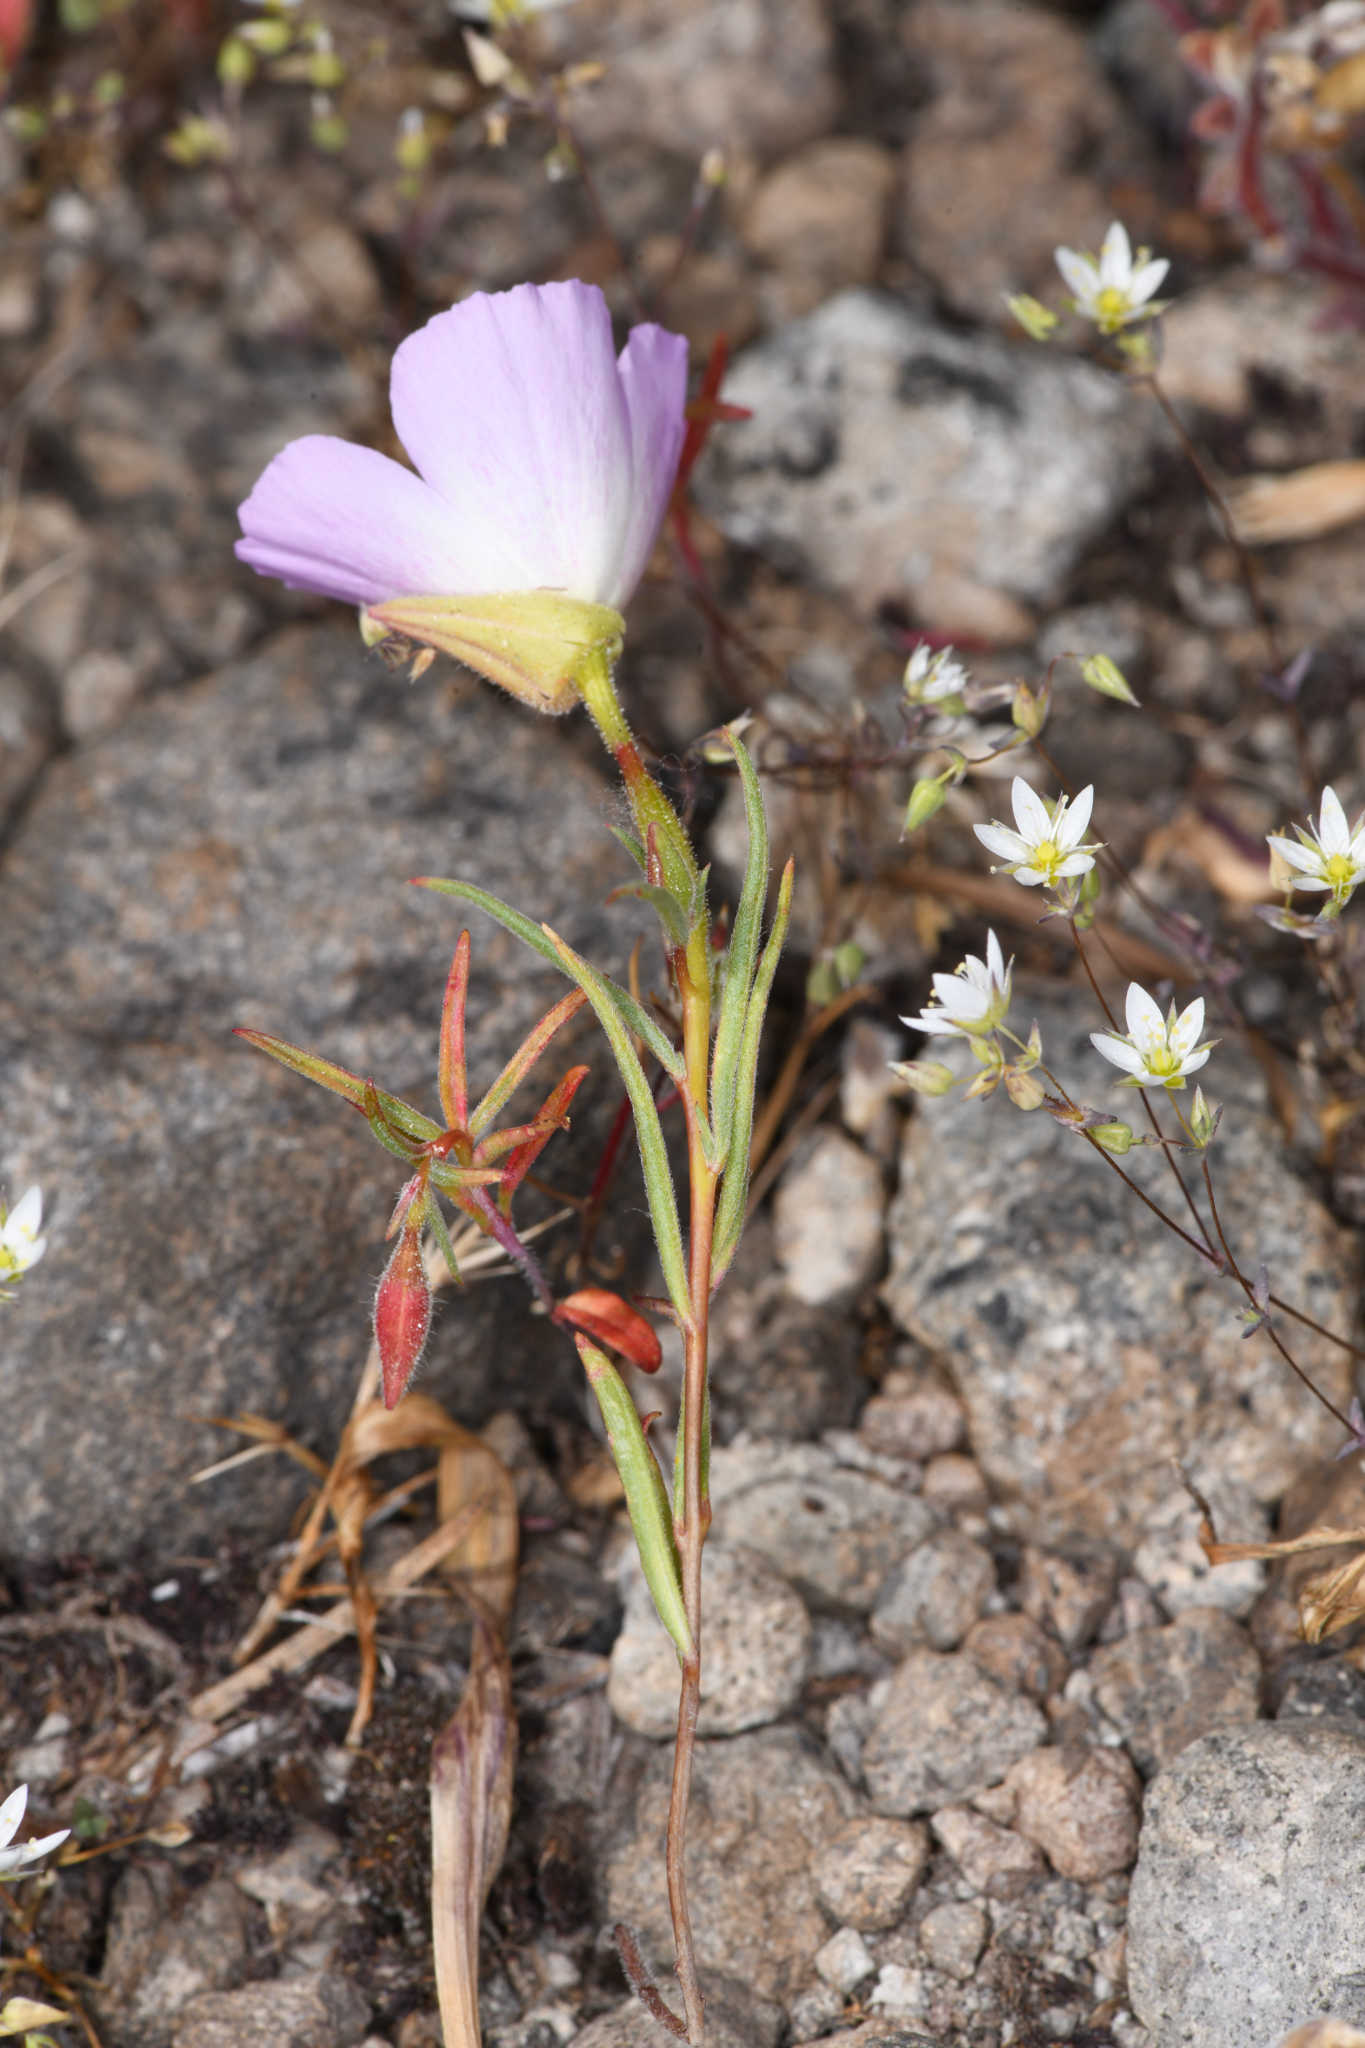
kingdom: Plantae
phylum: Tracheophyta
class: Magnoliopsida
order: Myrtales
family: Onagraceae
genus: Clarkia
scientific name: Clarkia arcuata
